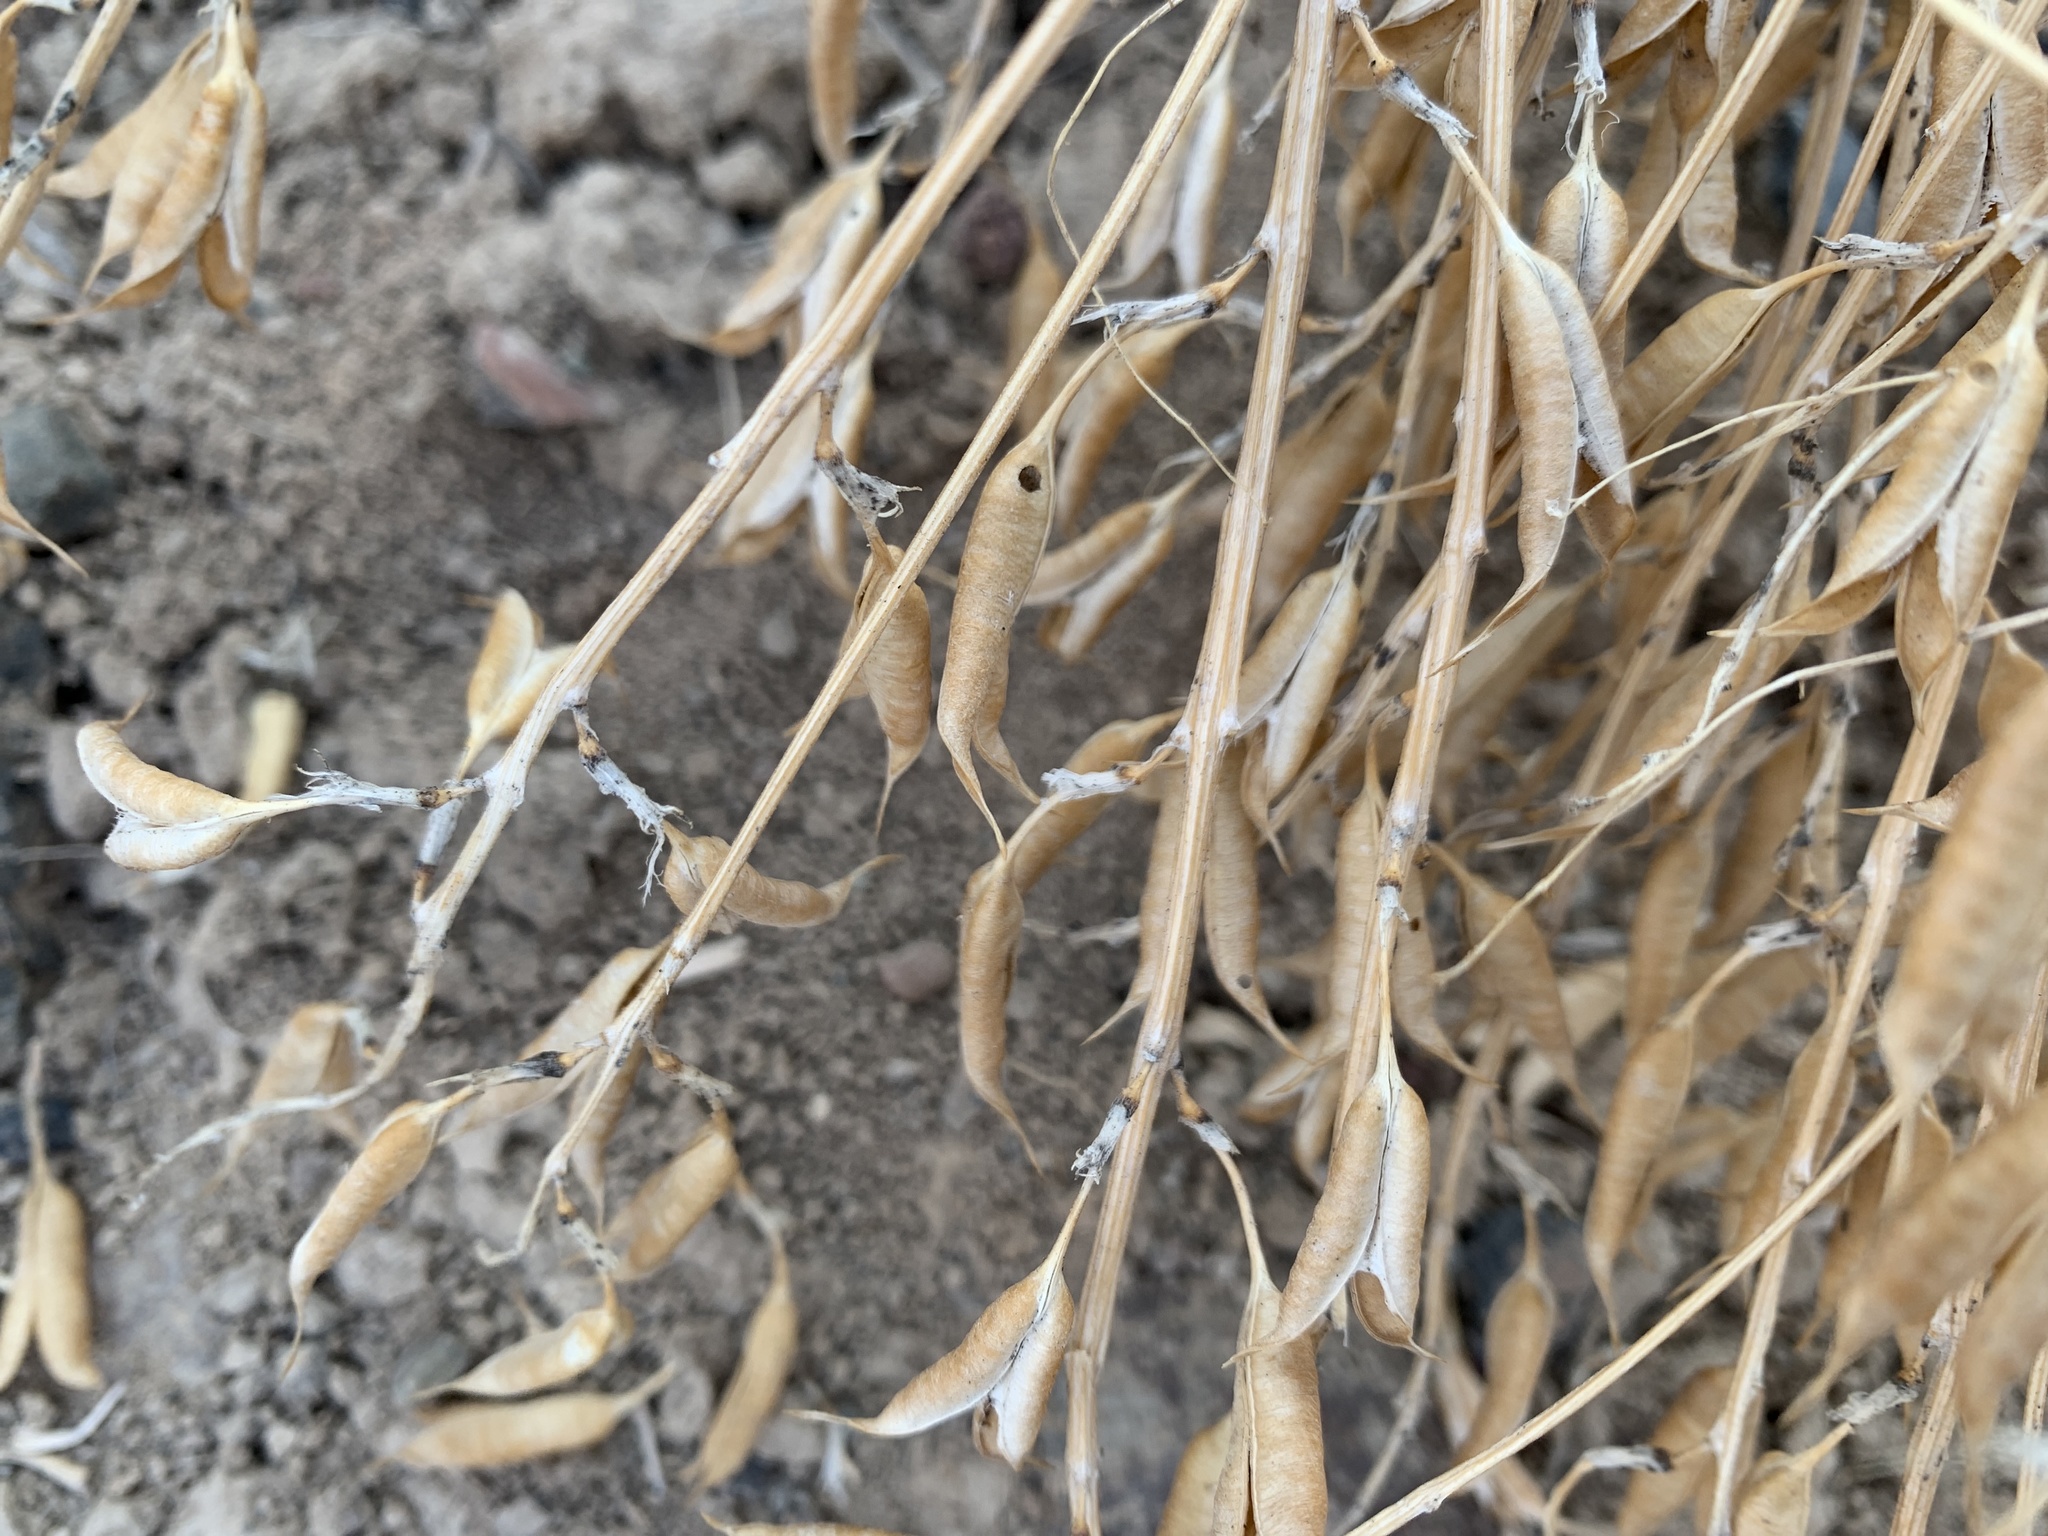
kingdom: Plantae
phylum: Tracheophyta
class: Magnoliopsida
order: Fabales
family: Fabaceae
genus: Astragalus
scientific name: Astragalus eremiticus
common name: Hermit milk-vetch
